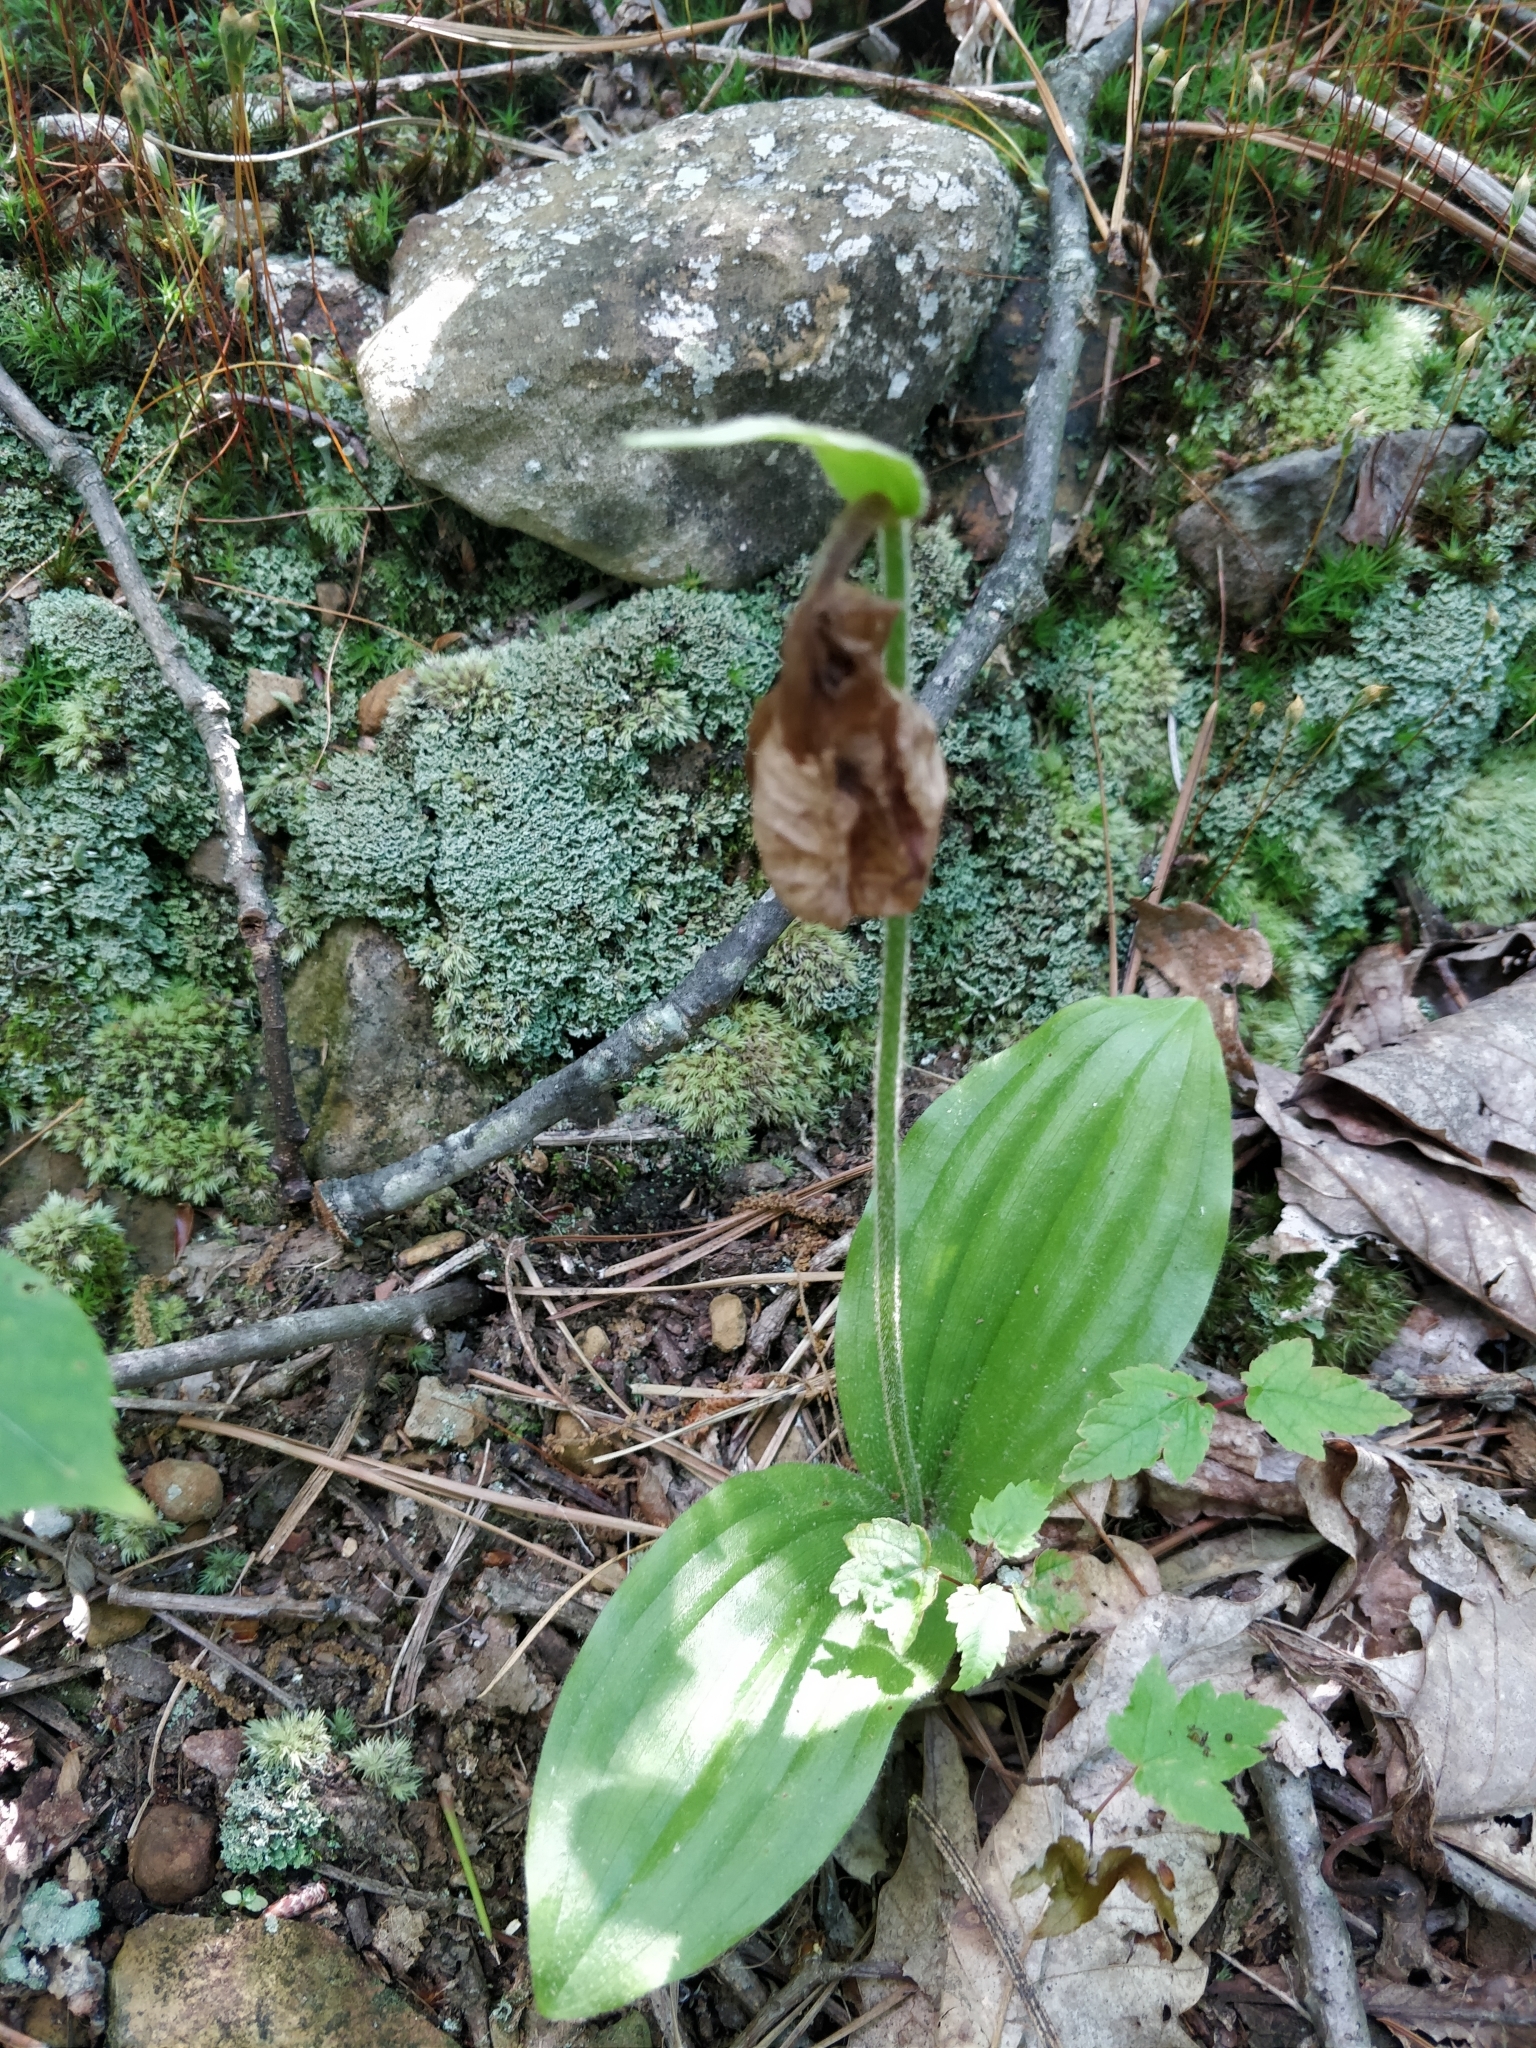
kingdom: Plantae
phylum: Tracheophyta
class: Liliopsida
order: Asparagales
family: Orchidaceae
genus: Cypripedium
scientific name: Cypripedium acaule
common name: Pink lady's-slipper
